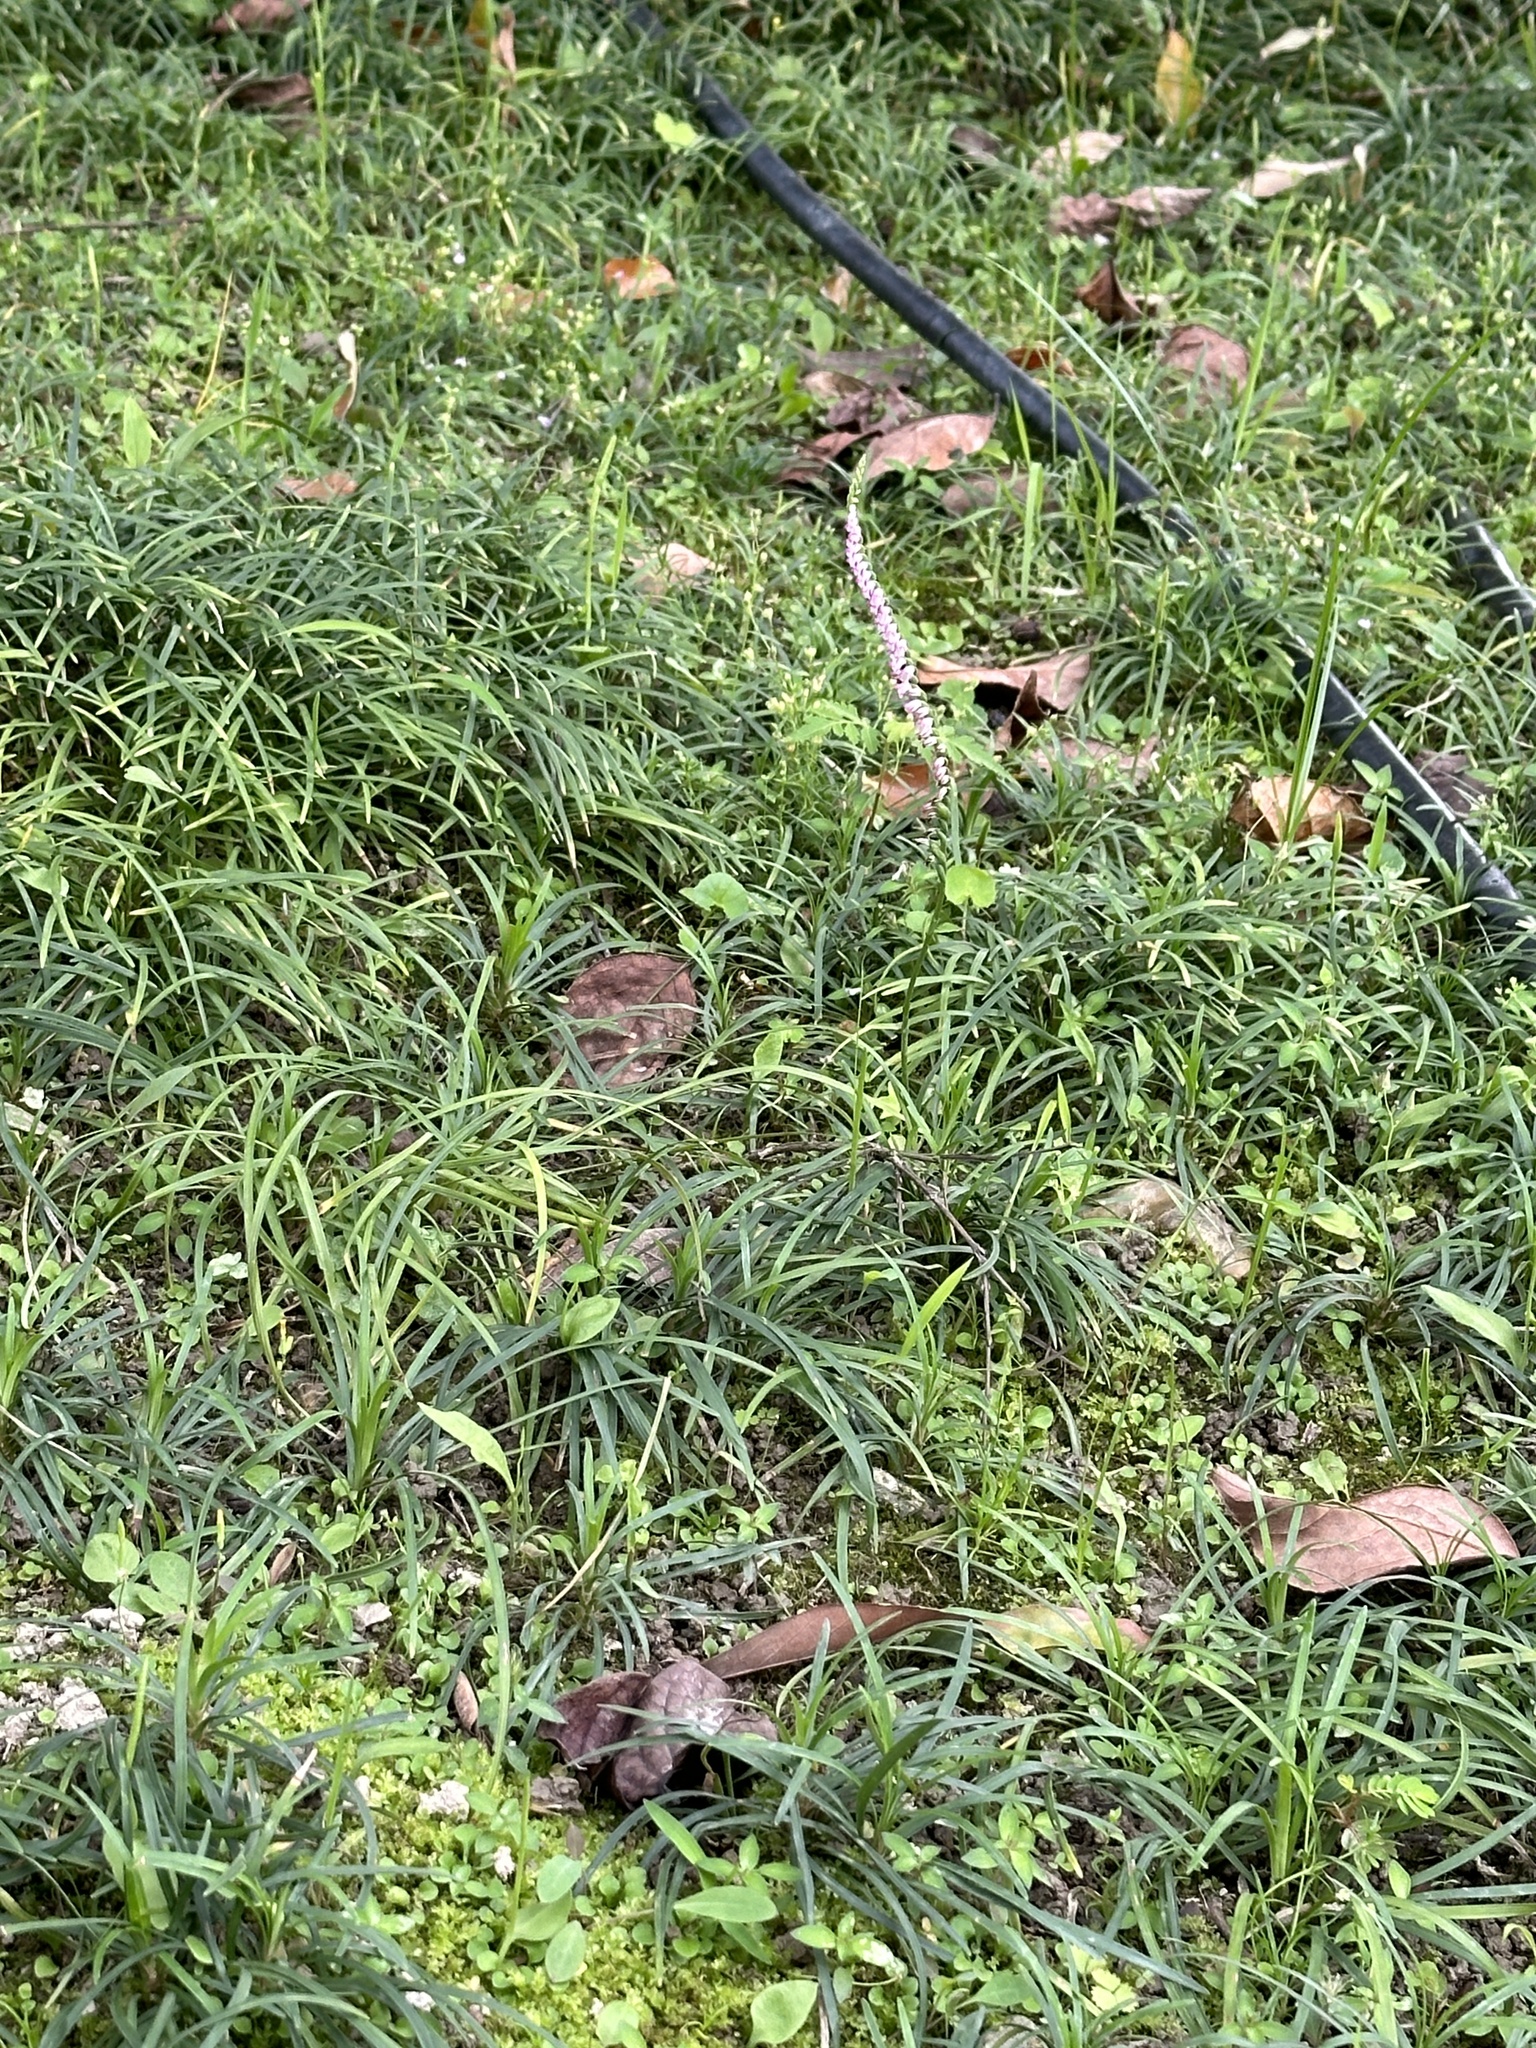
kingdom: Plantae
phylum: Tracheophyta
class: Liliopsida
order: Asparagales
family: Orchidaceae
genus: Spiranthes
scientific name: Spiranthes sinensis
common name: Chinese spiranthes
